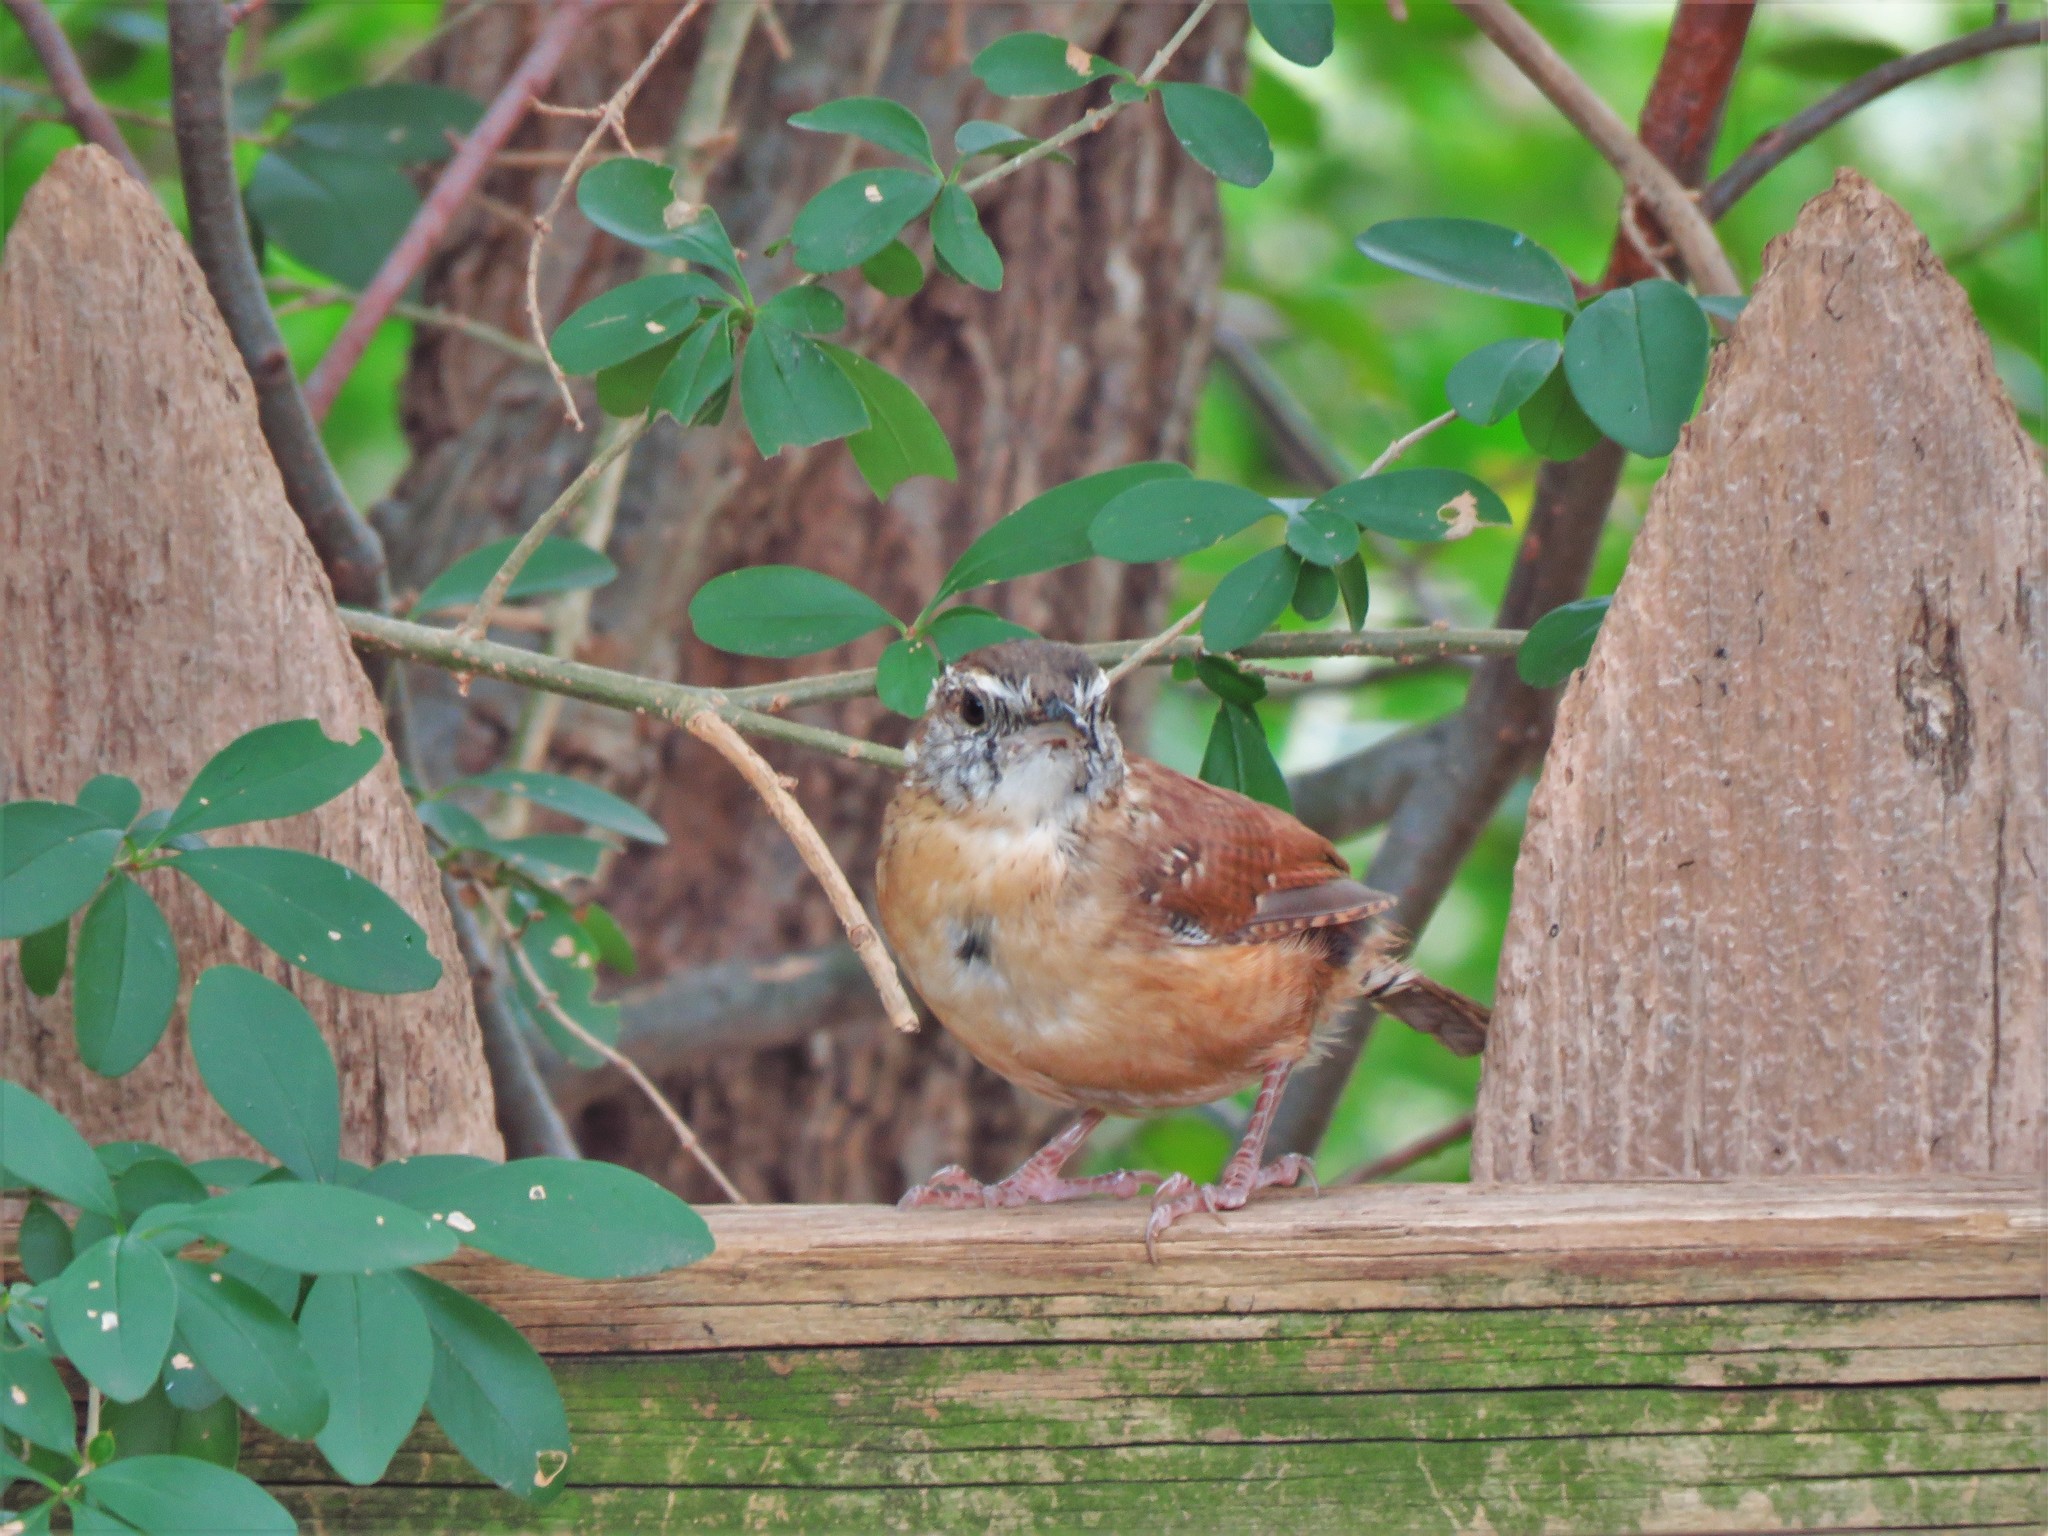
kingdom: Animalia
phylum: Chordata
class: Aves
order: Passeriformes
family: Troglodytidae
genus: Thryothorus
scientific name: Thryothorus ludovicianus
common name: Carolina wren
